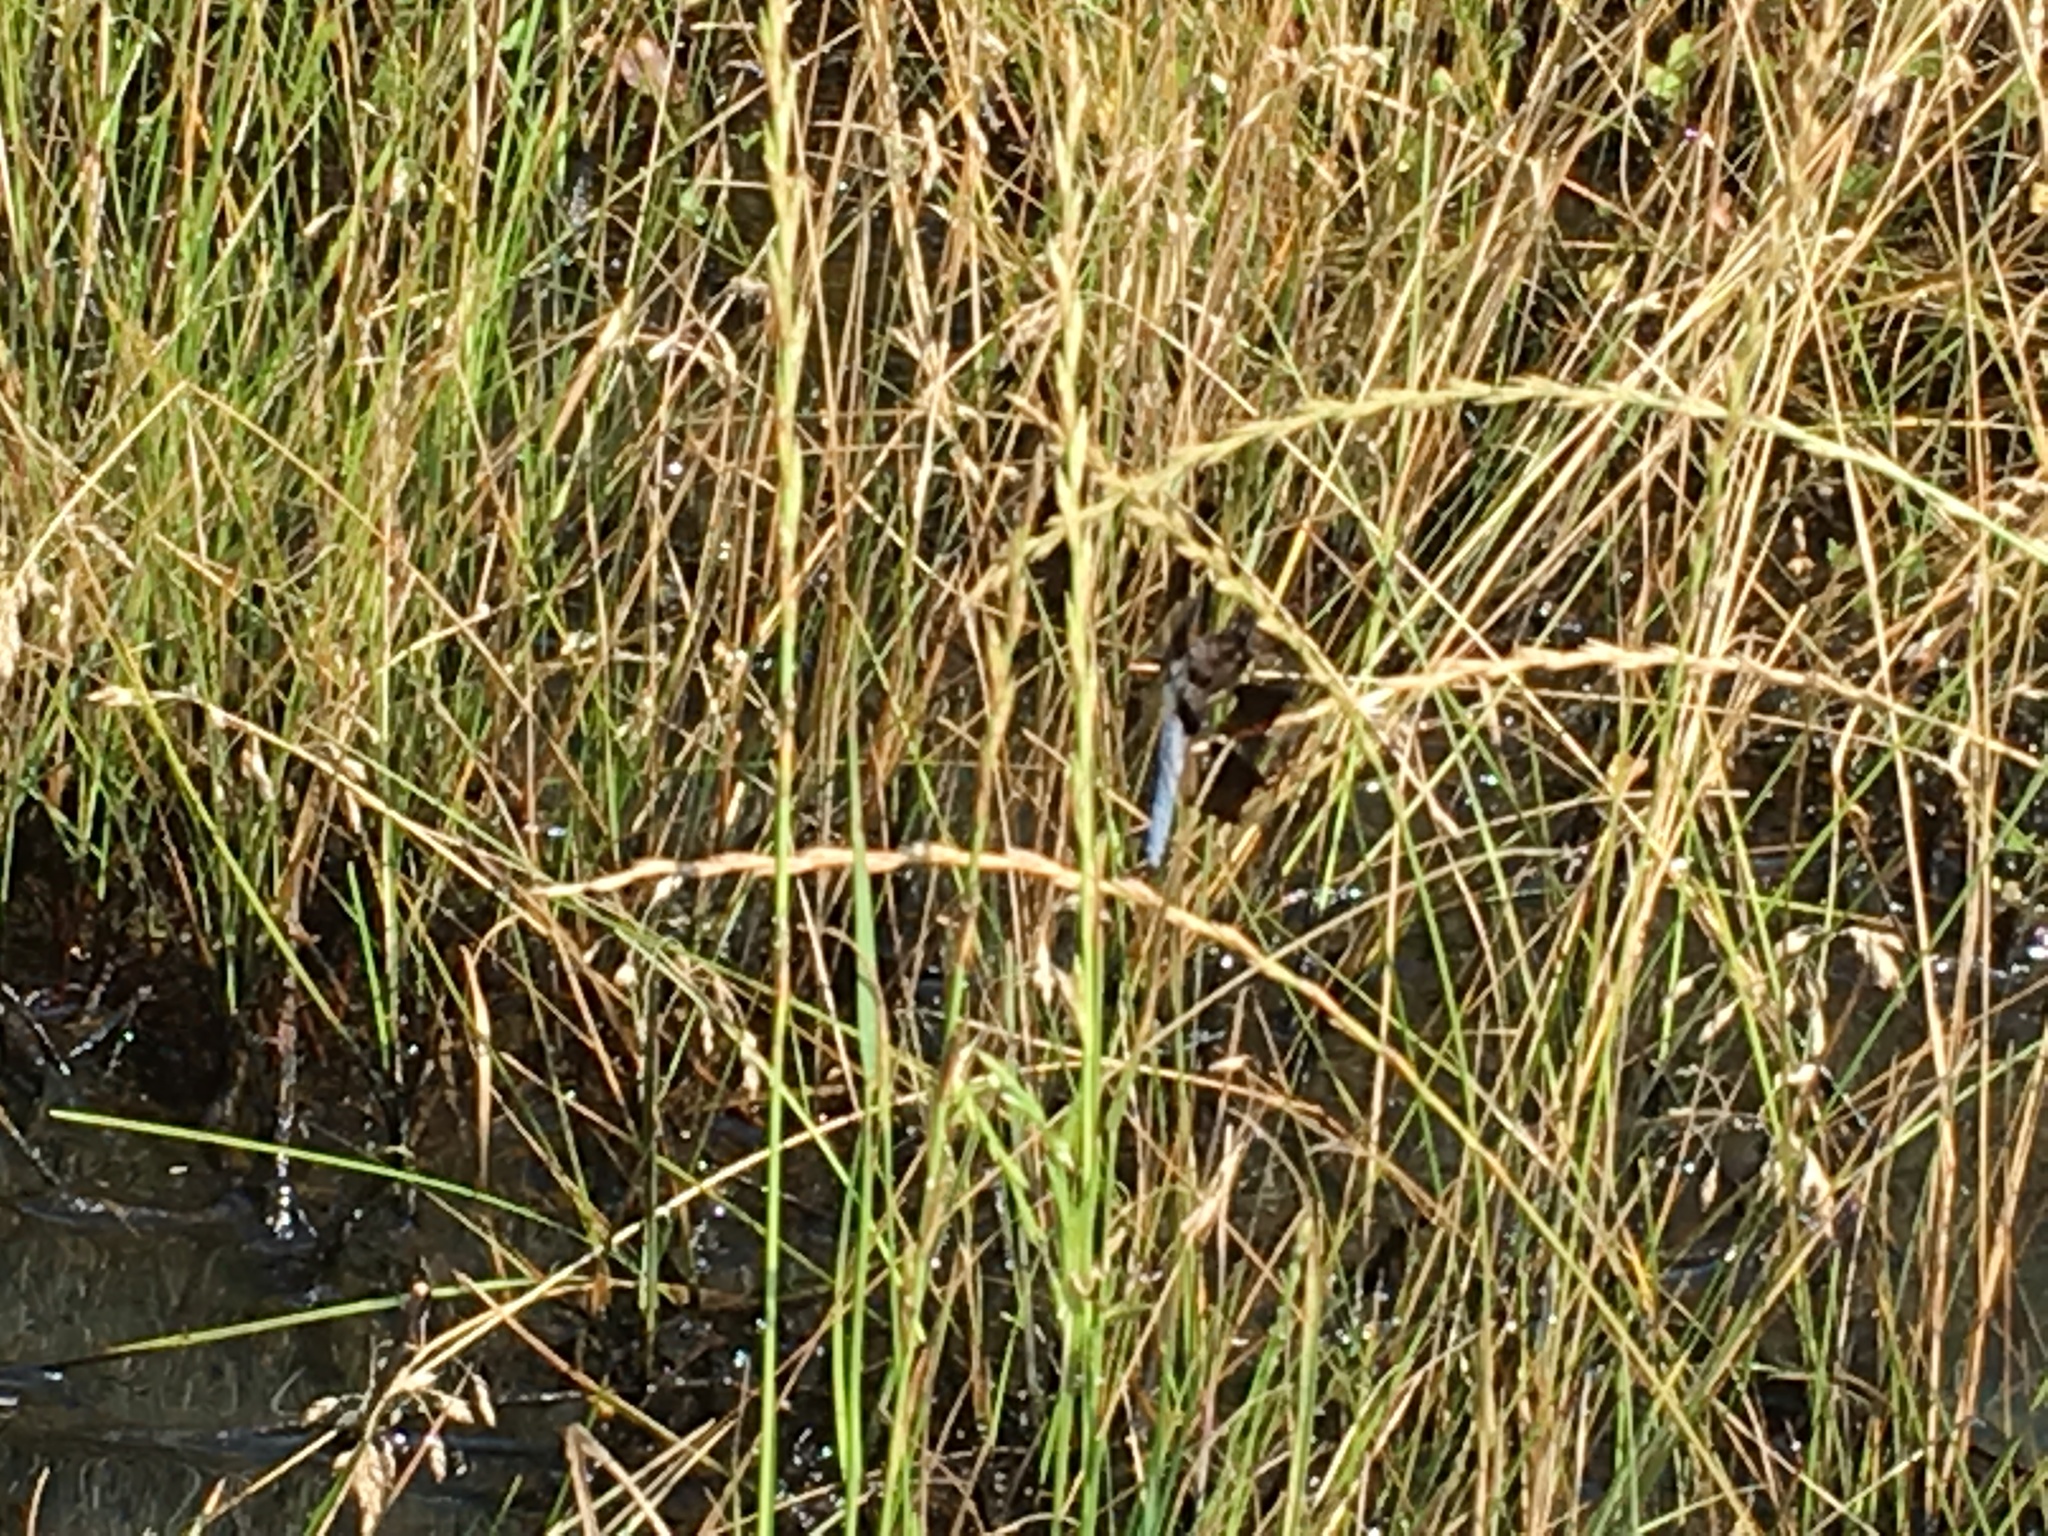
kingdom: Animalia
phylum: Arthropoda
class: Insecta
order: Odonata
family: Libellulidae
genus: Plathemis
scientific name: Plathemis lydia
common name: Common whitetail
